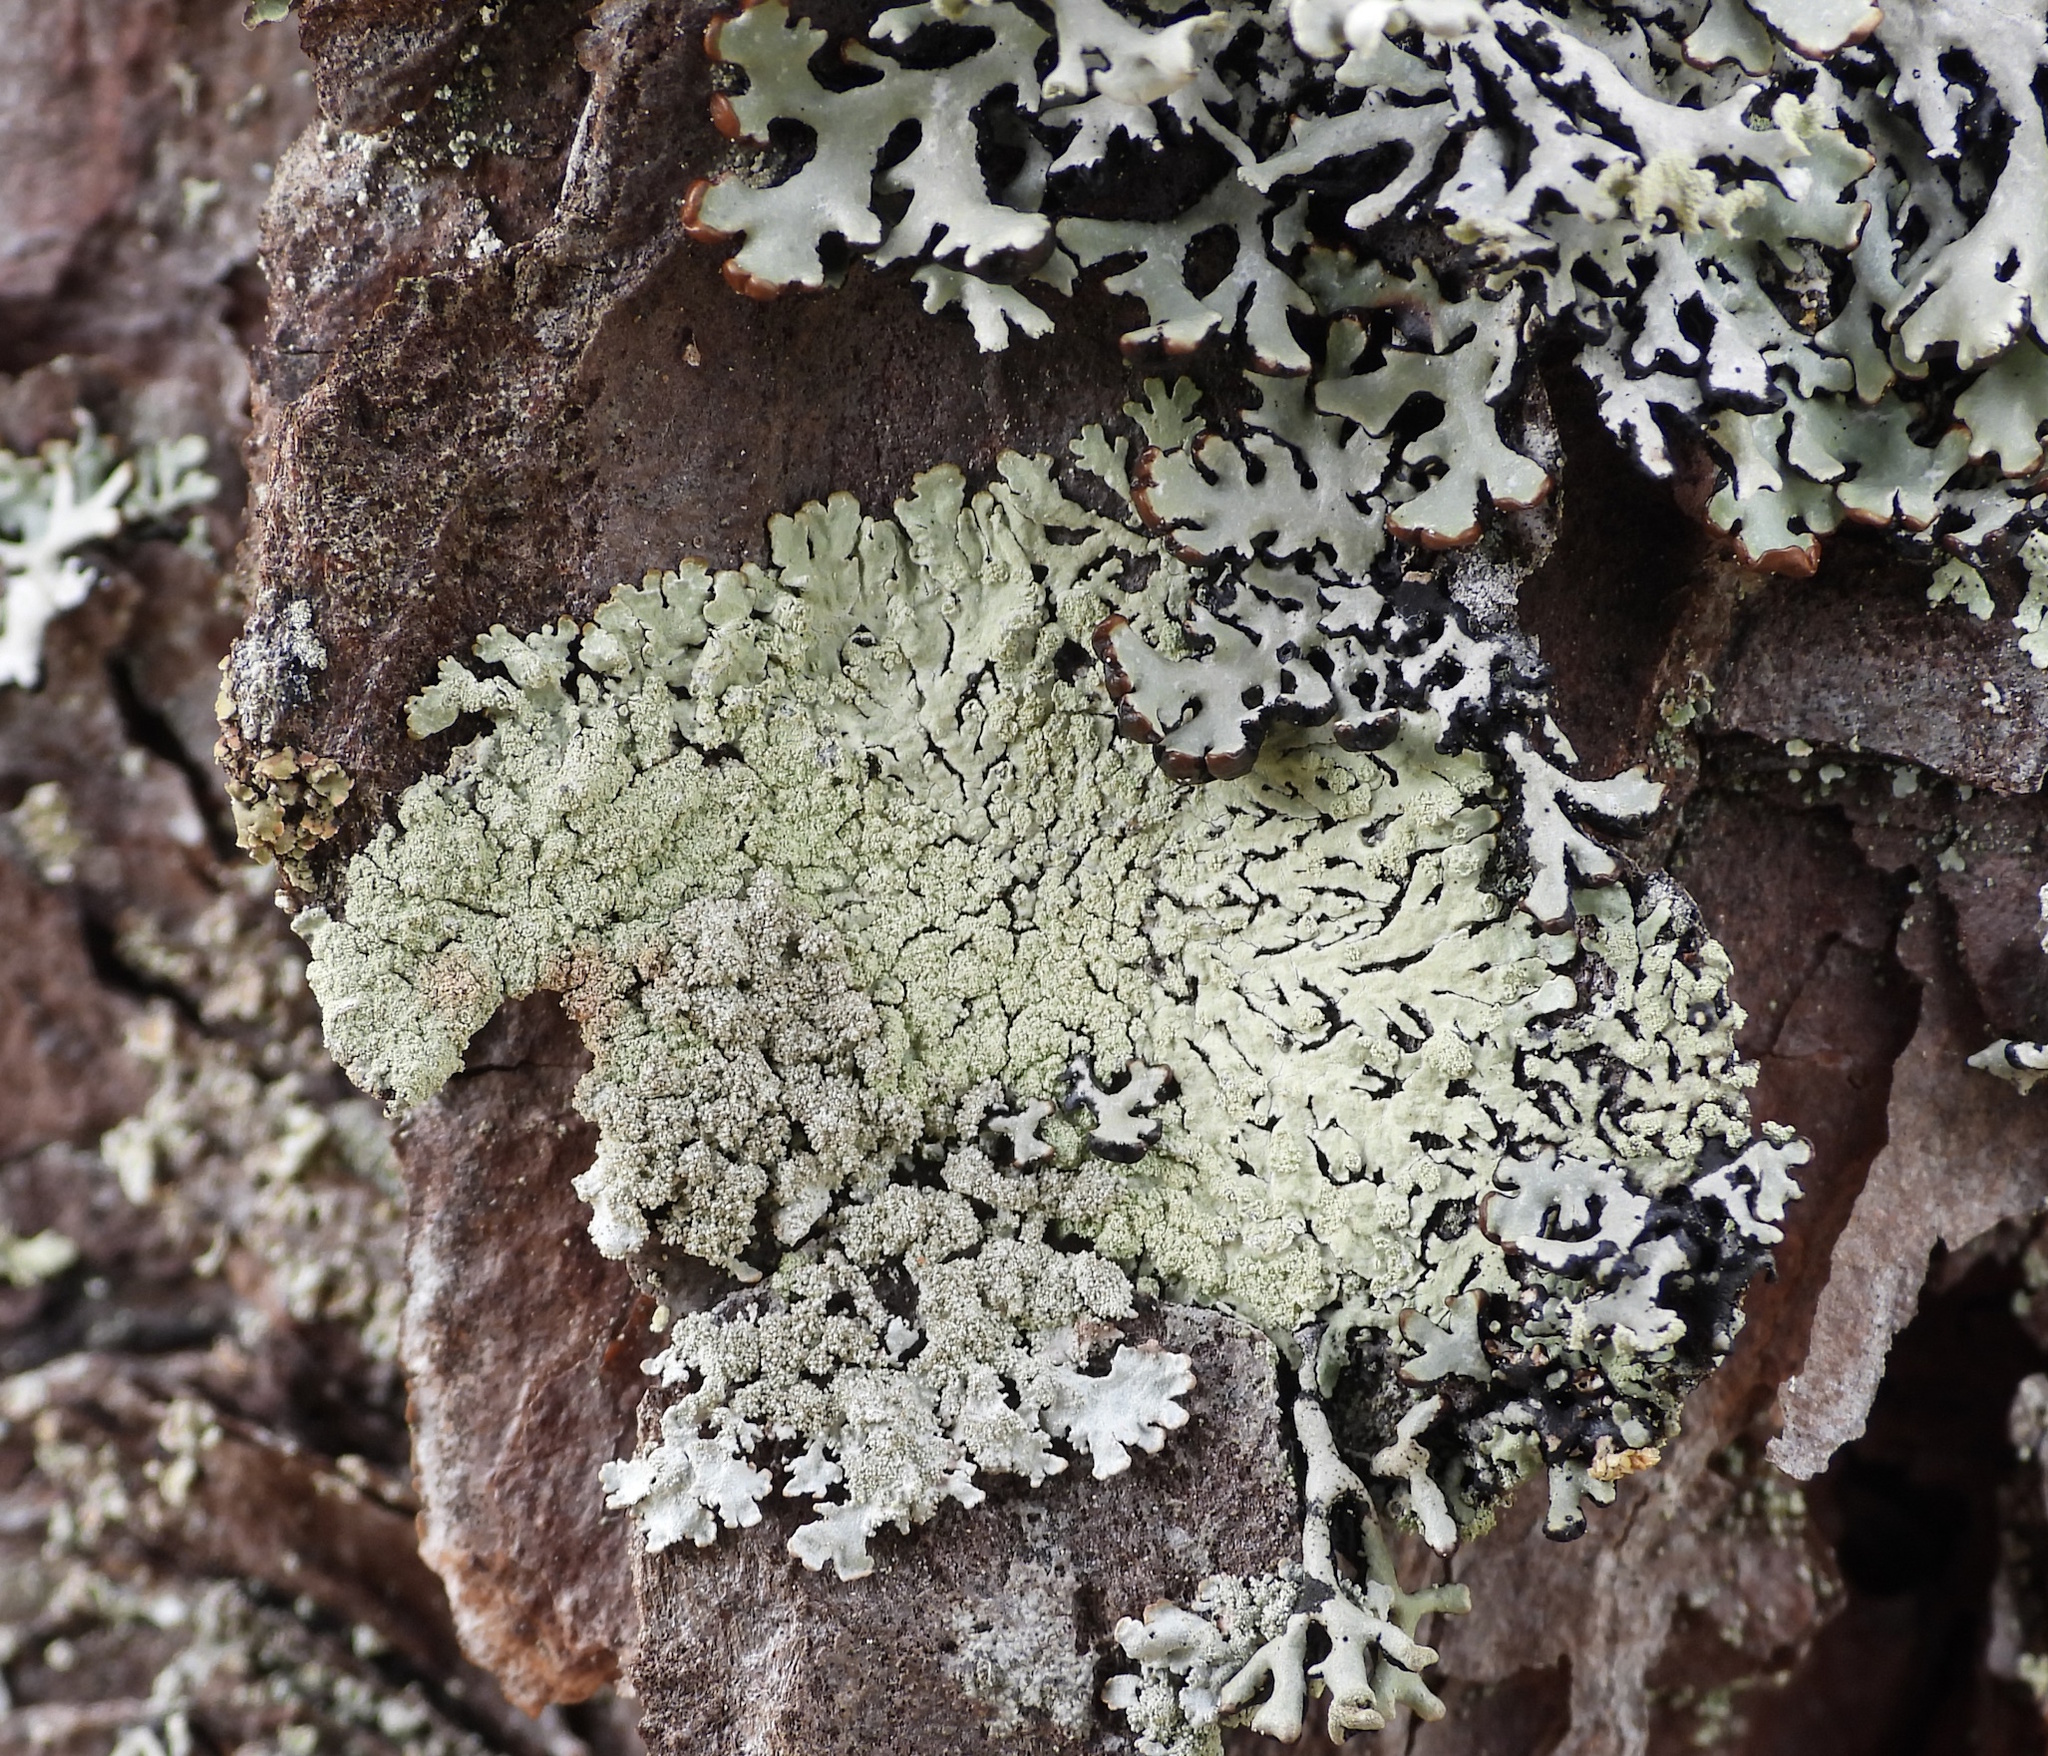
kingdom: Fungi
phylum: Ascomycota
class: Lecanoromycetes
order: Lecanorales
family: Parmeliaceae
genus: Parmeliopsis
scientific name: Parmeliopsis ambigua
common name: Green starburst lichen
